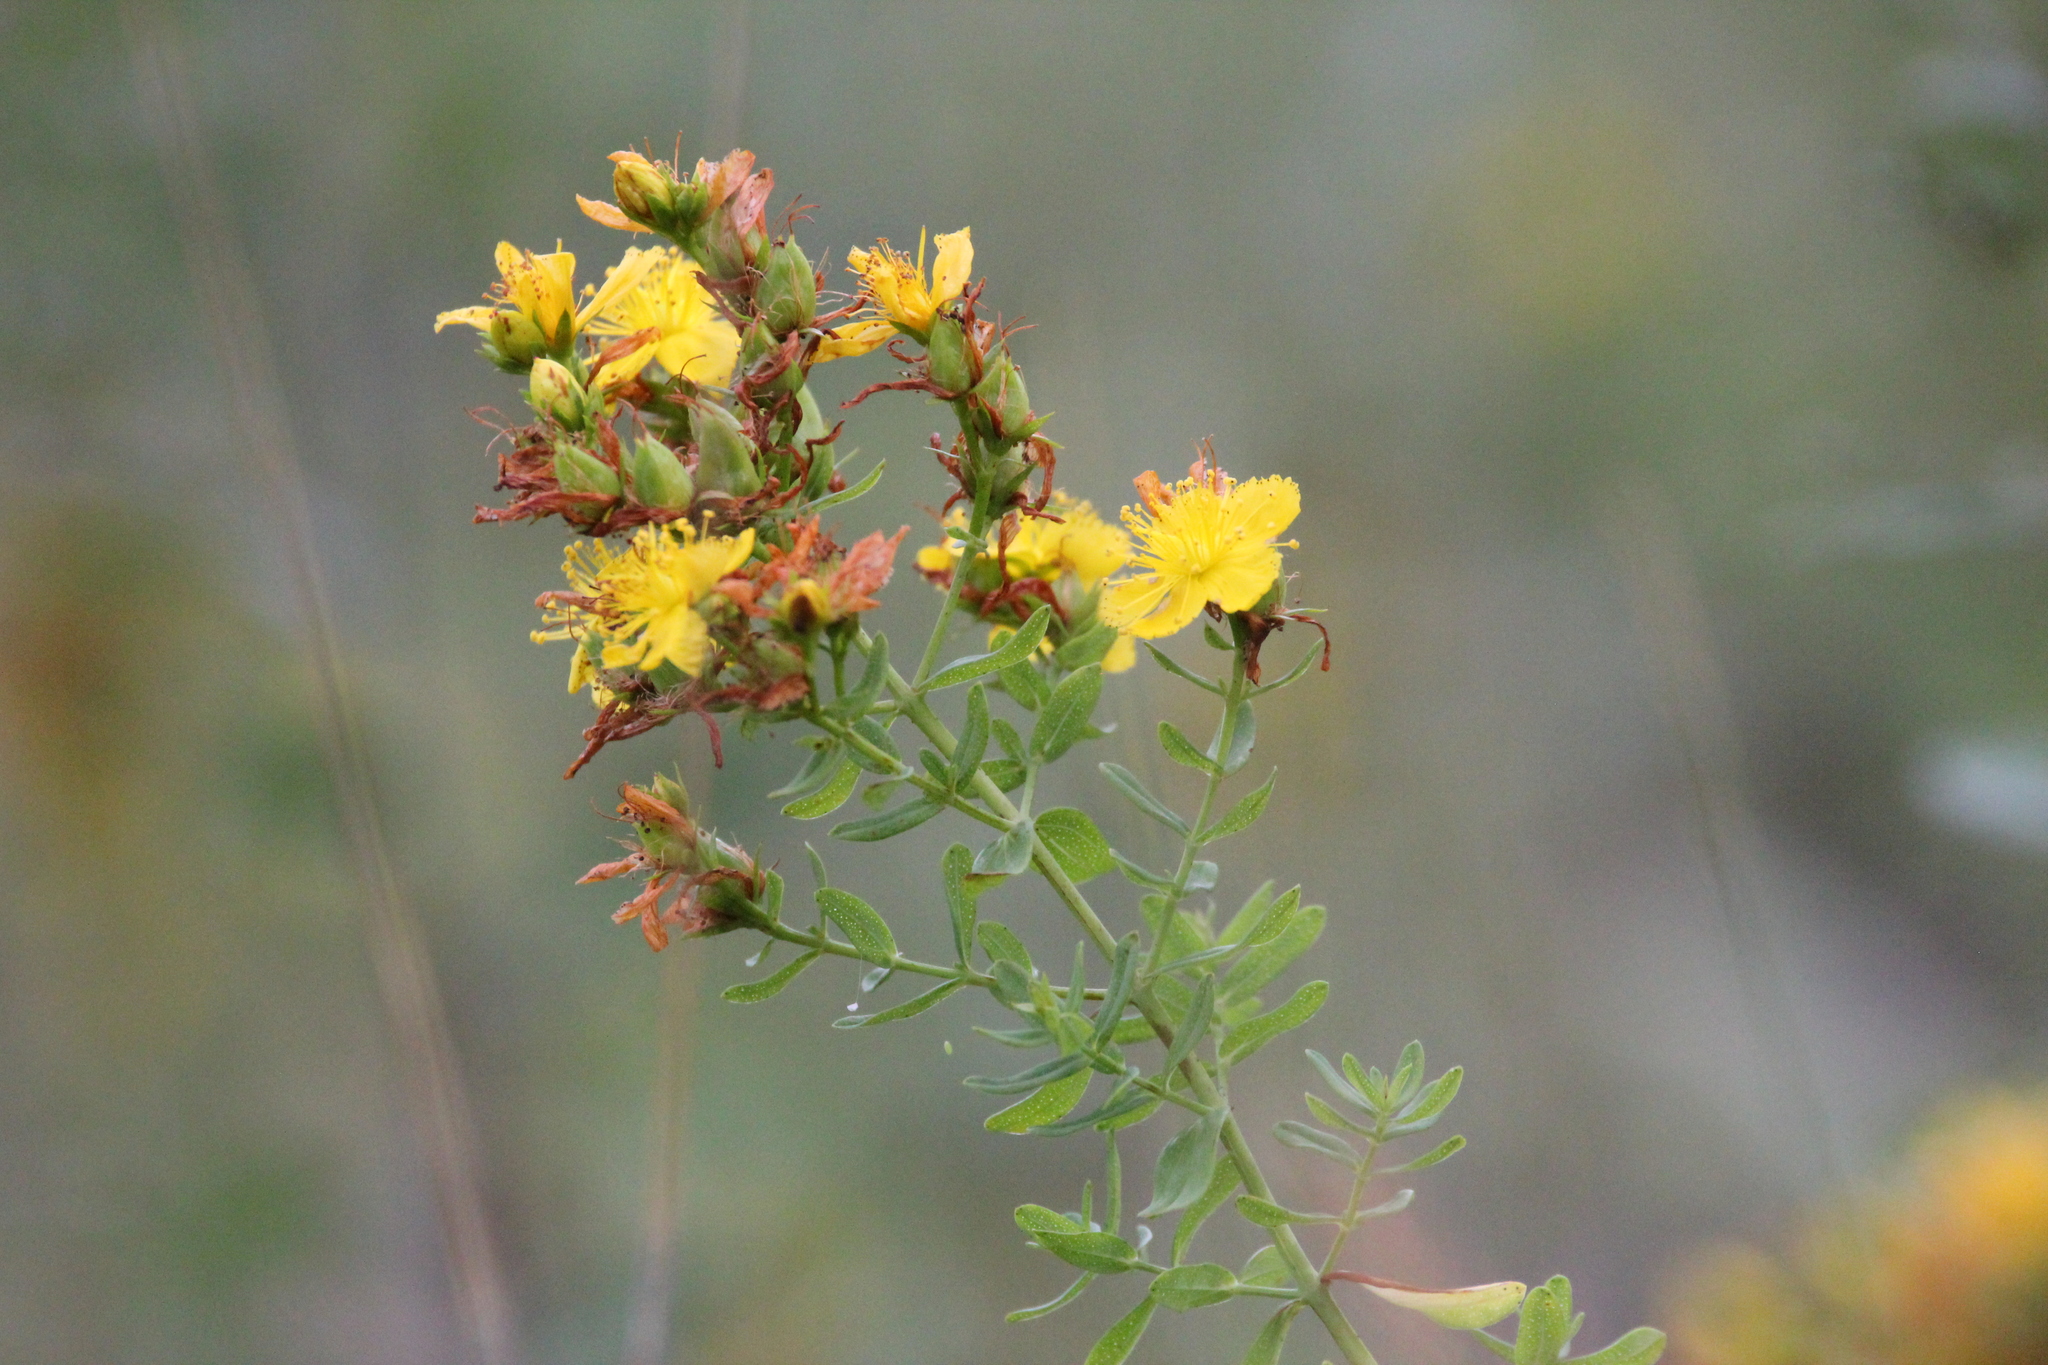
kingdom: Plantae
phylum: Tracheophyta
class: Magnoliopsida
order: Malpighiales
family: Hypericaceae
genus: Hypericum
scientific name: Hypericum perforatum
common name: Common st. johnswort
